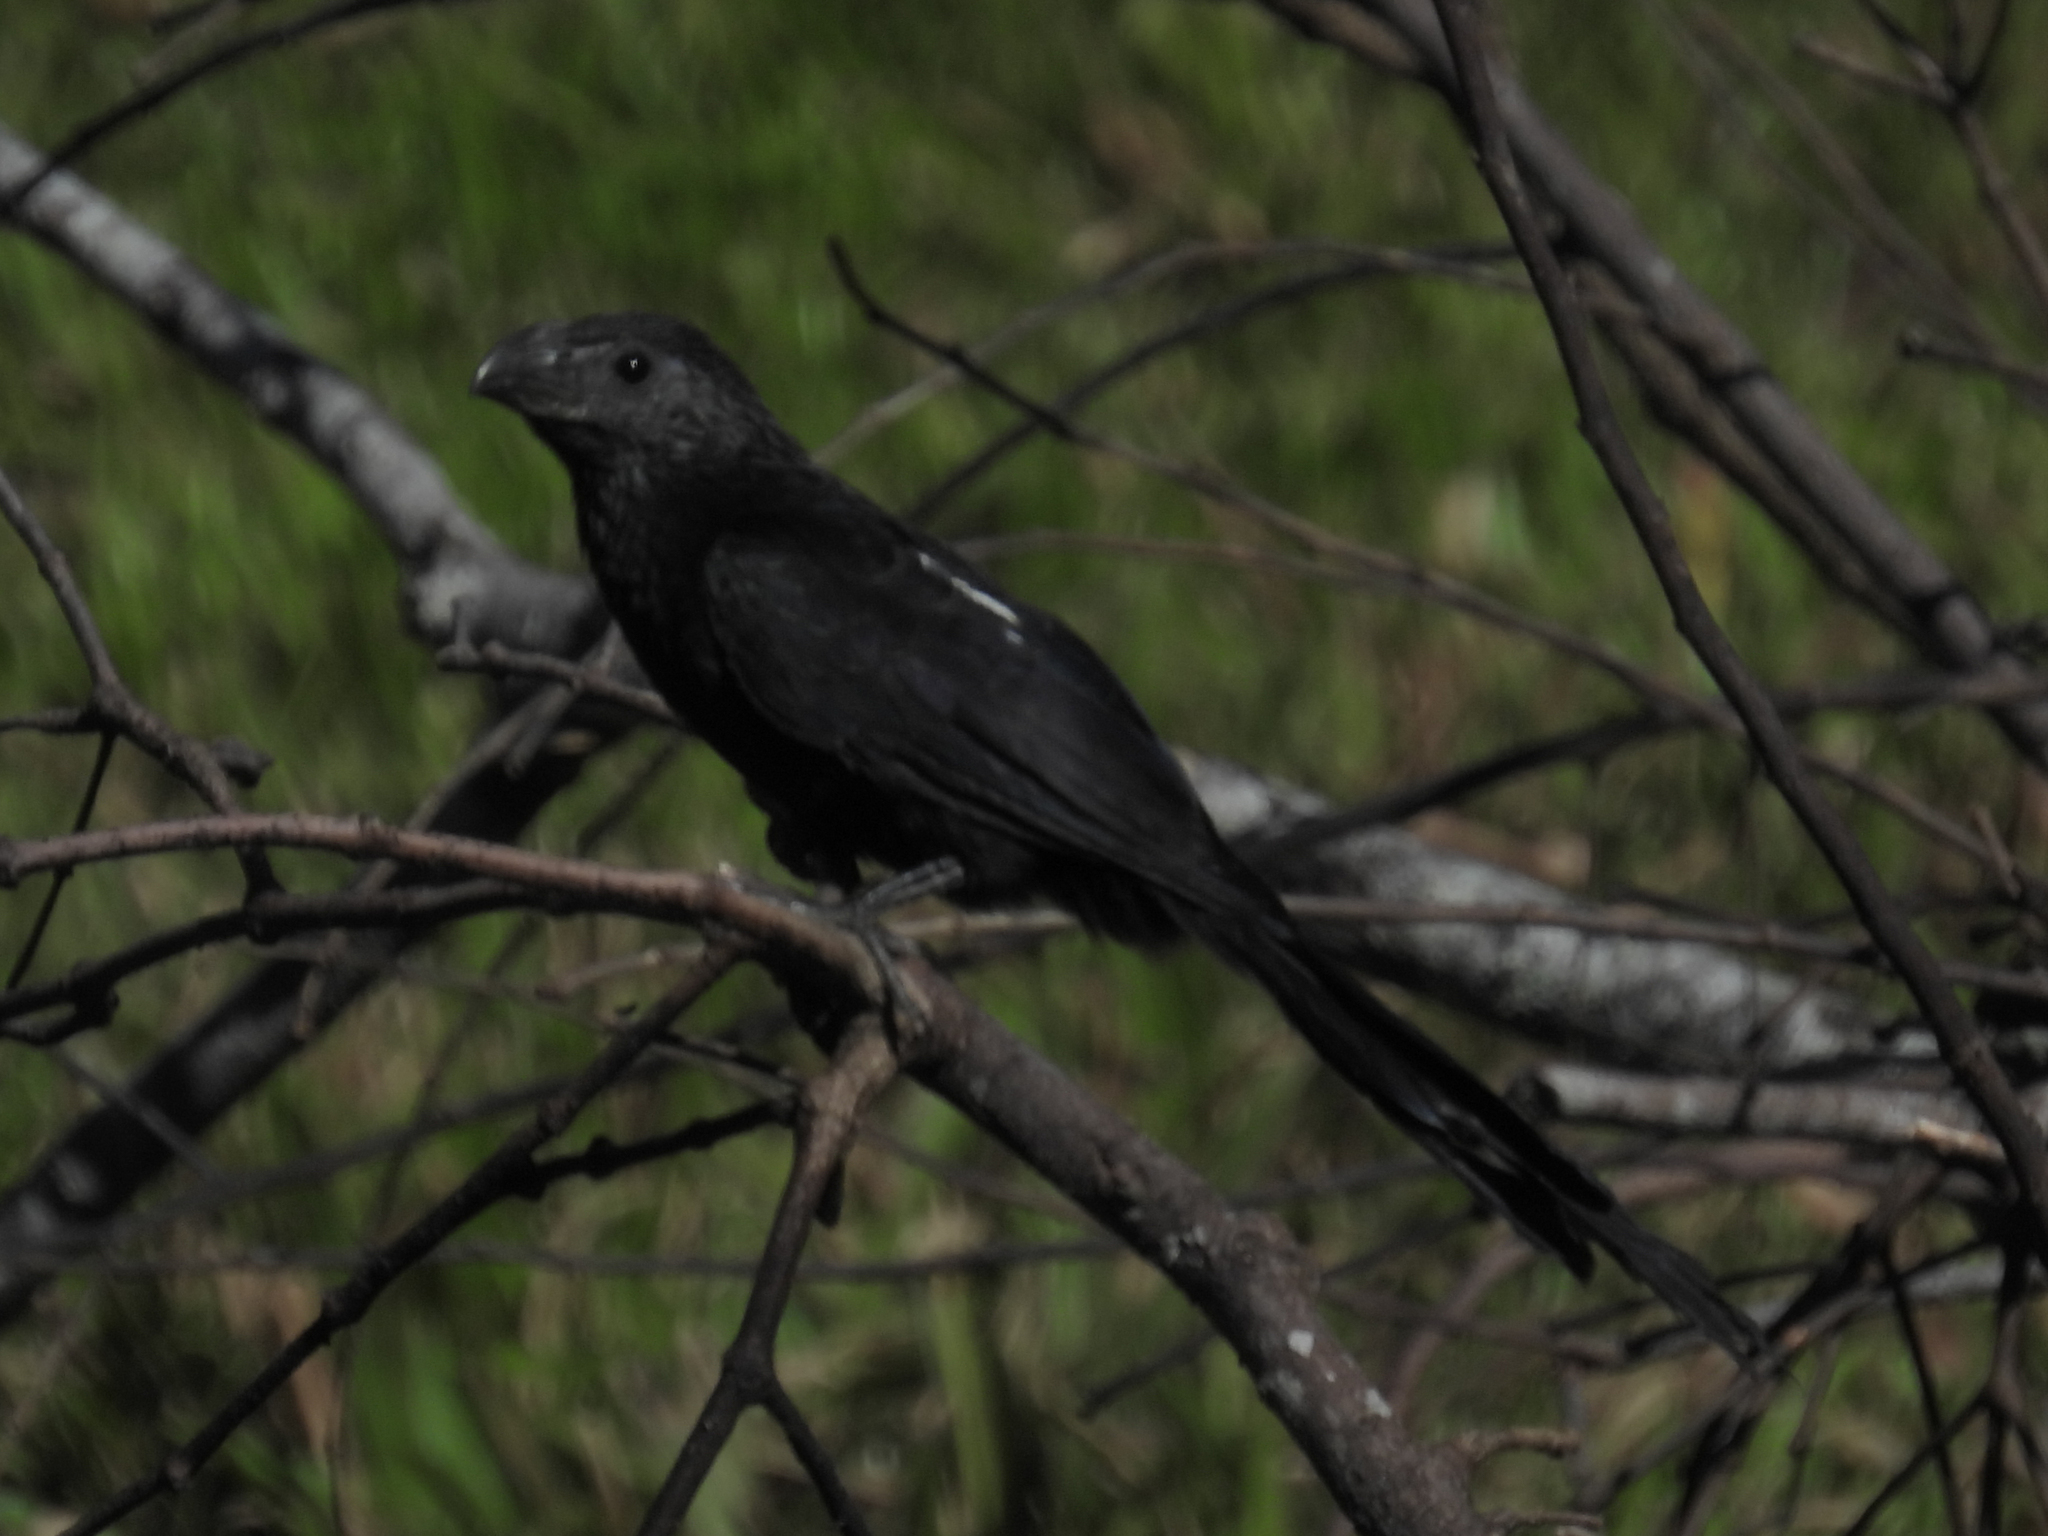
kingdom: Animalia
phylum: Chordata
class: Aves
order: Cuculiformes
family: Cuculidae
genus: Crotophaga
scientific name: Crotophaga sulcirostris
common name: Groove-billed ani
